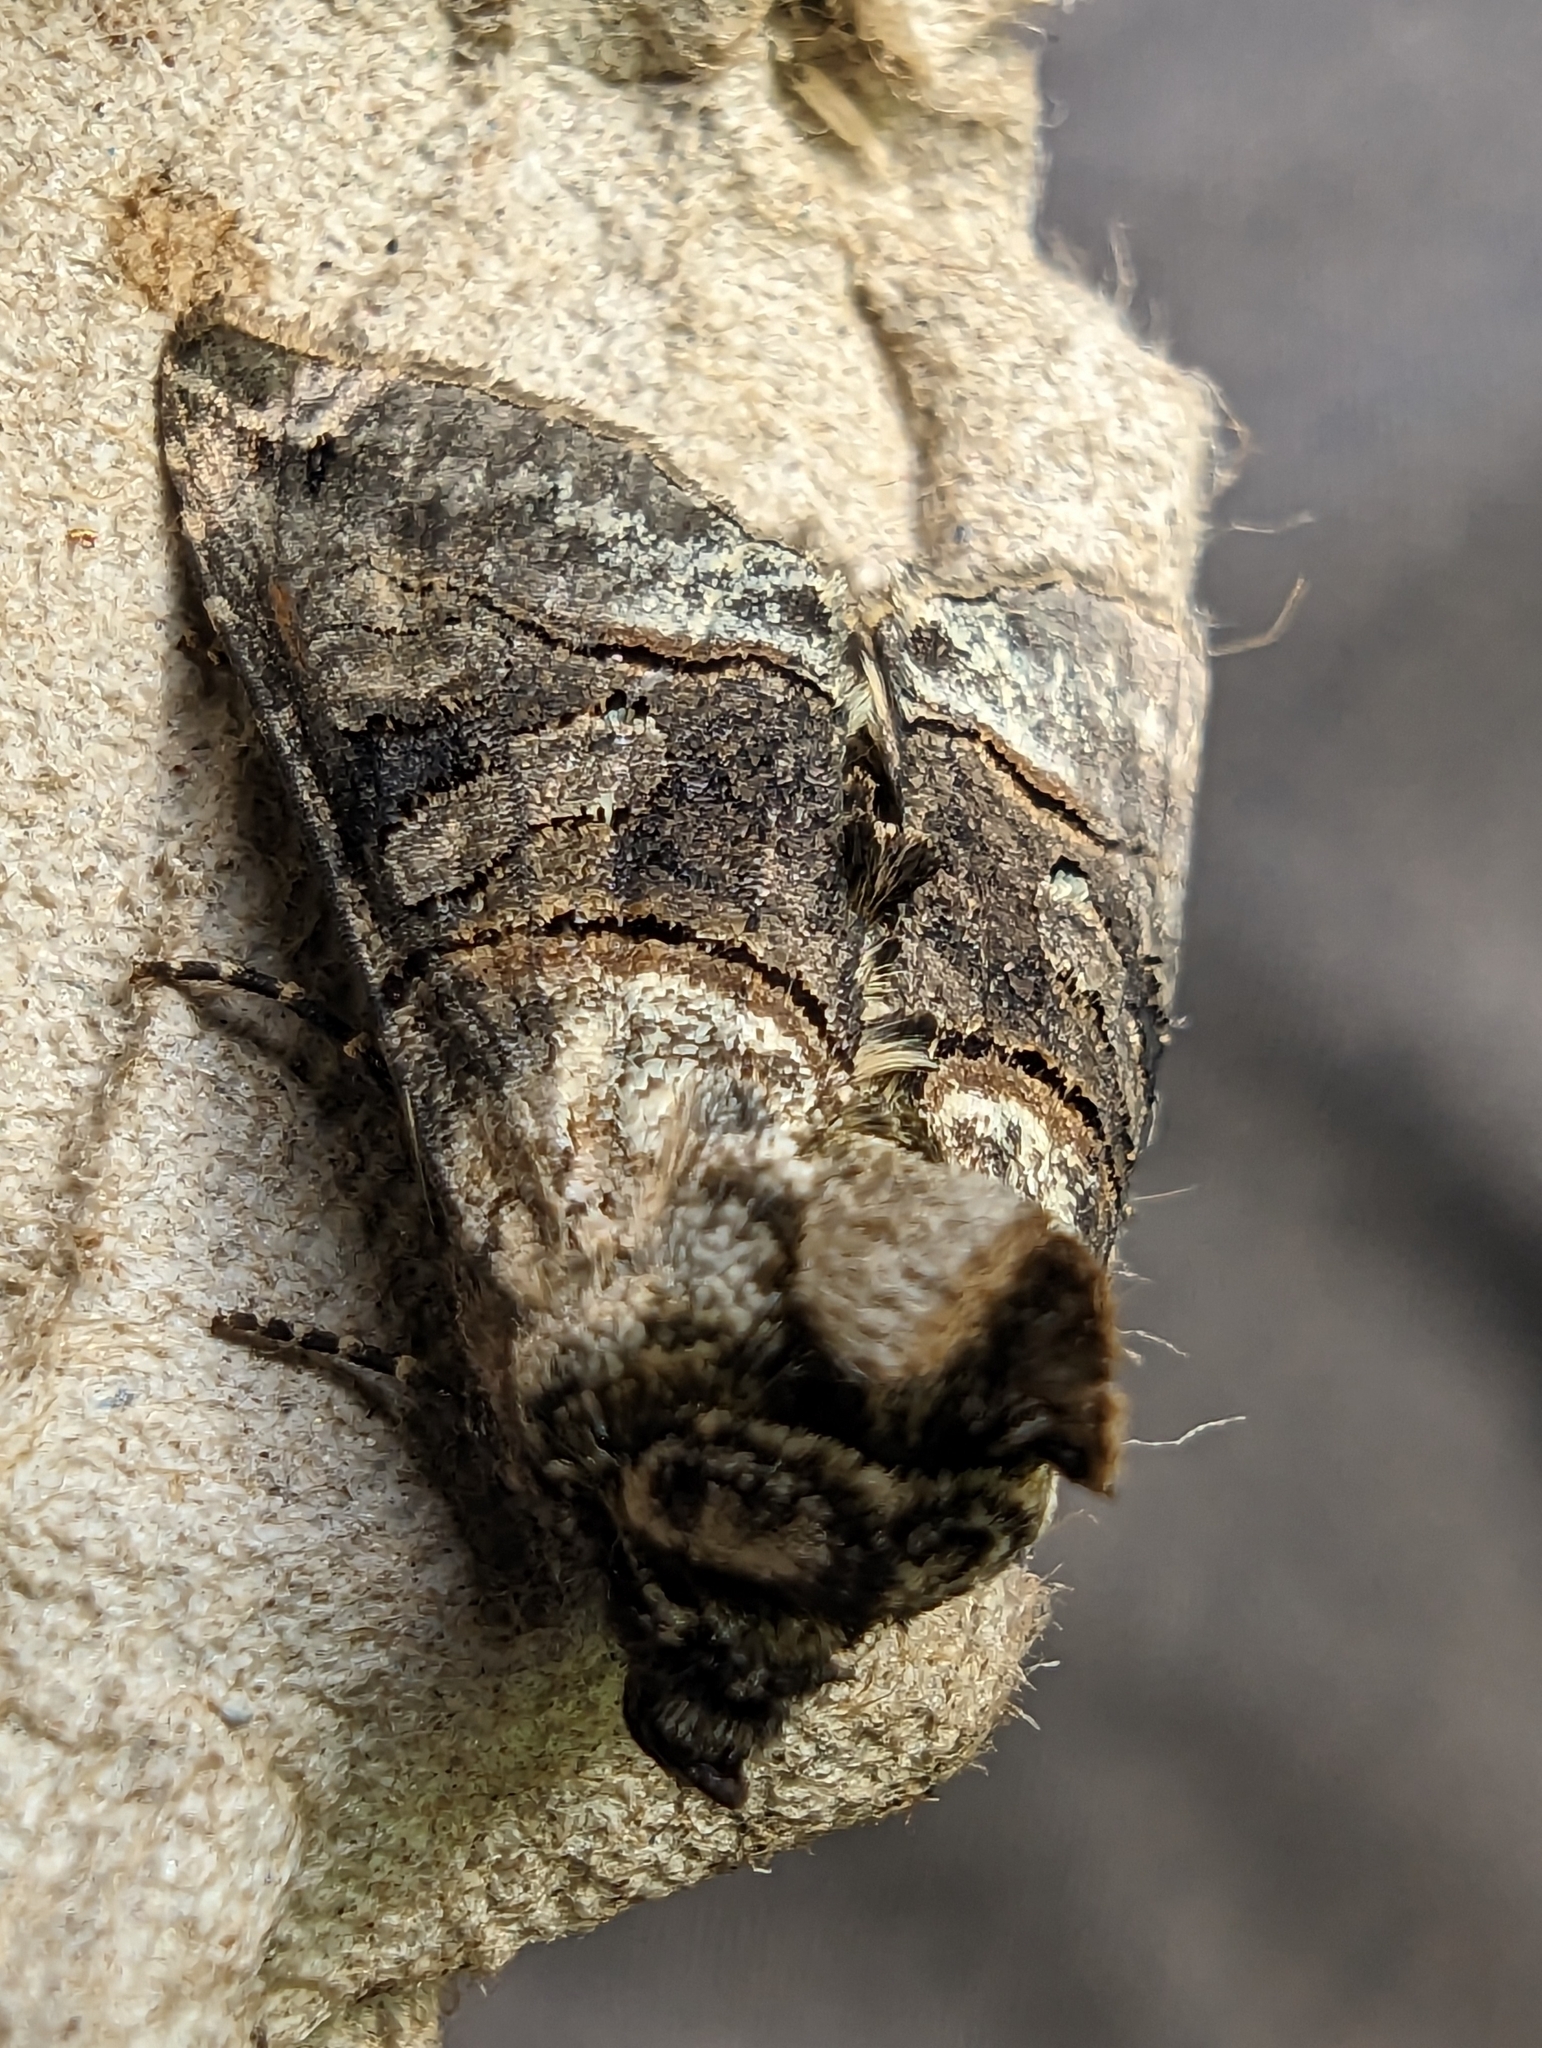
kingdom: Animalia
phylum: Arthropoda
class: Insecta
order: Lepidoptera
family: Noctuidae
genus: Abrostola
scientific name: Abrostola tripartita
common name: Spectacle
